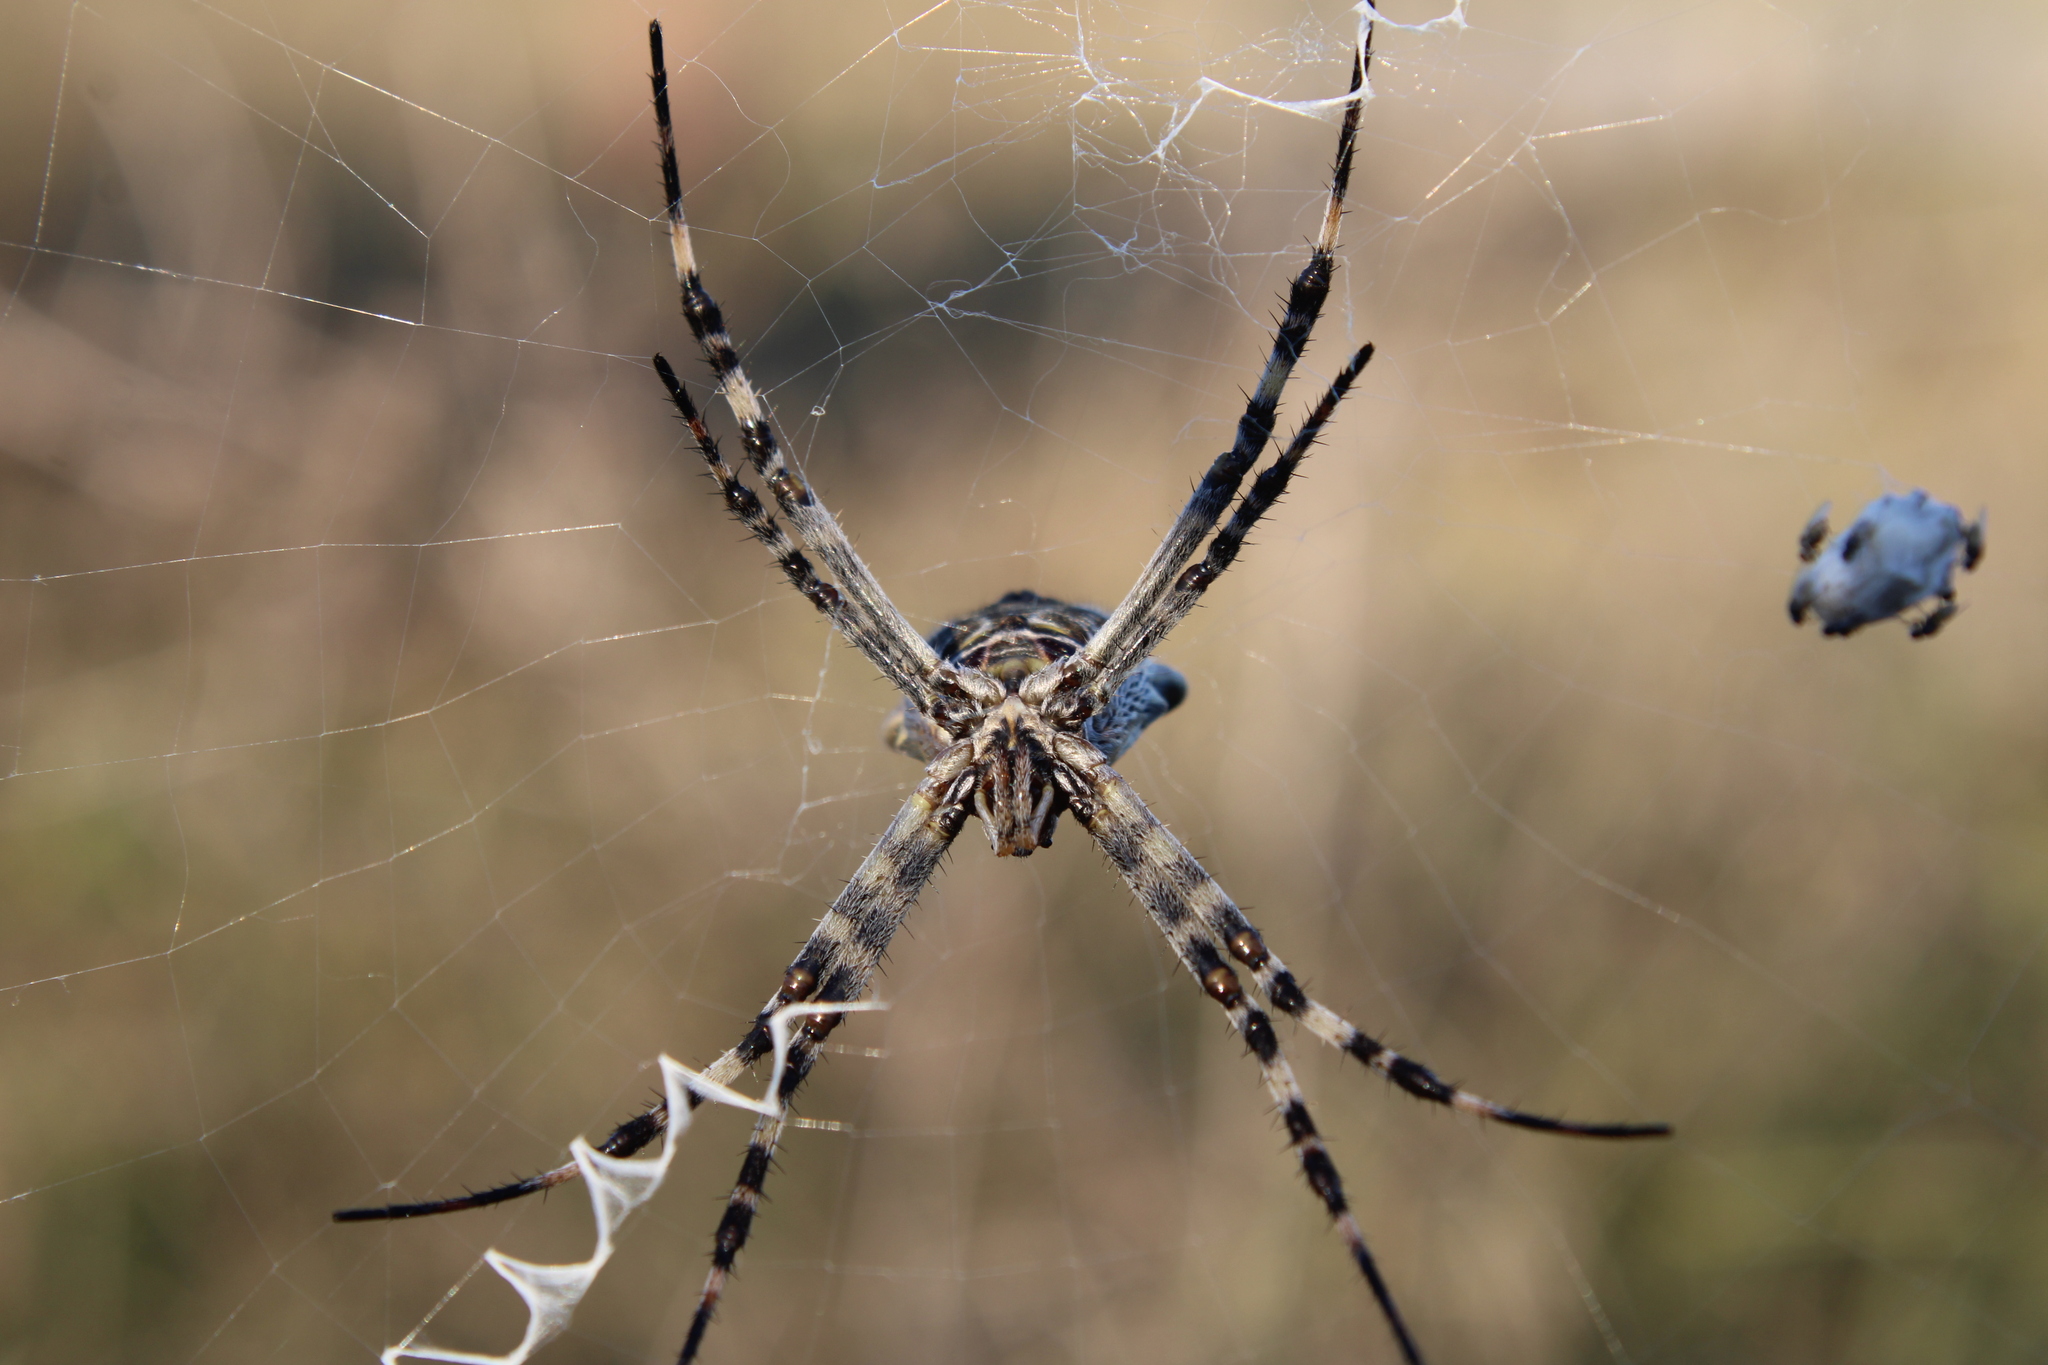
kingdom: Animalia
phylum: Arthropoda
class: Arachnida
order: Araneae
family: Araneidae
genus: Argiope
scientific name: Argiope argentata
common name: Orb weavers
